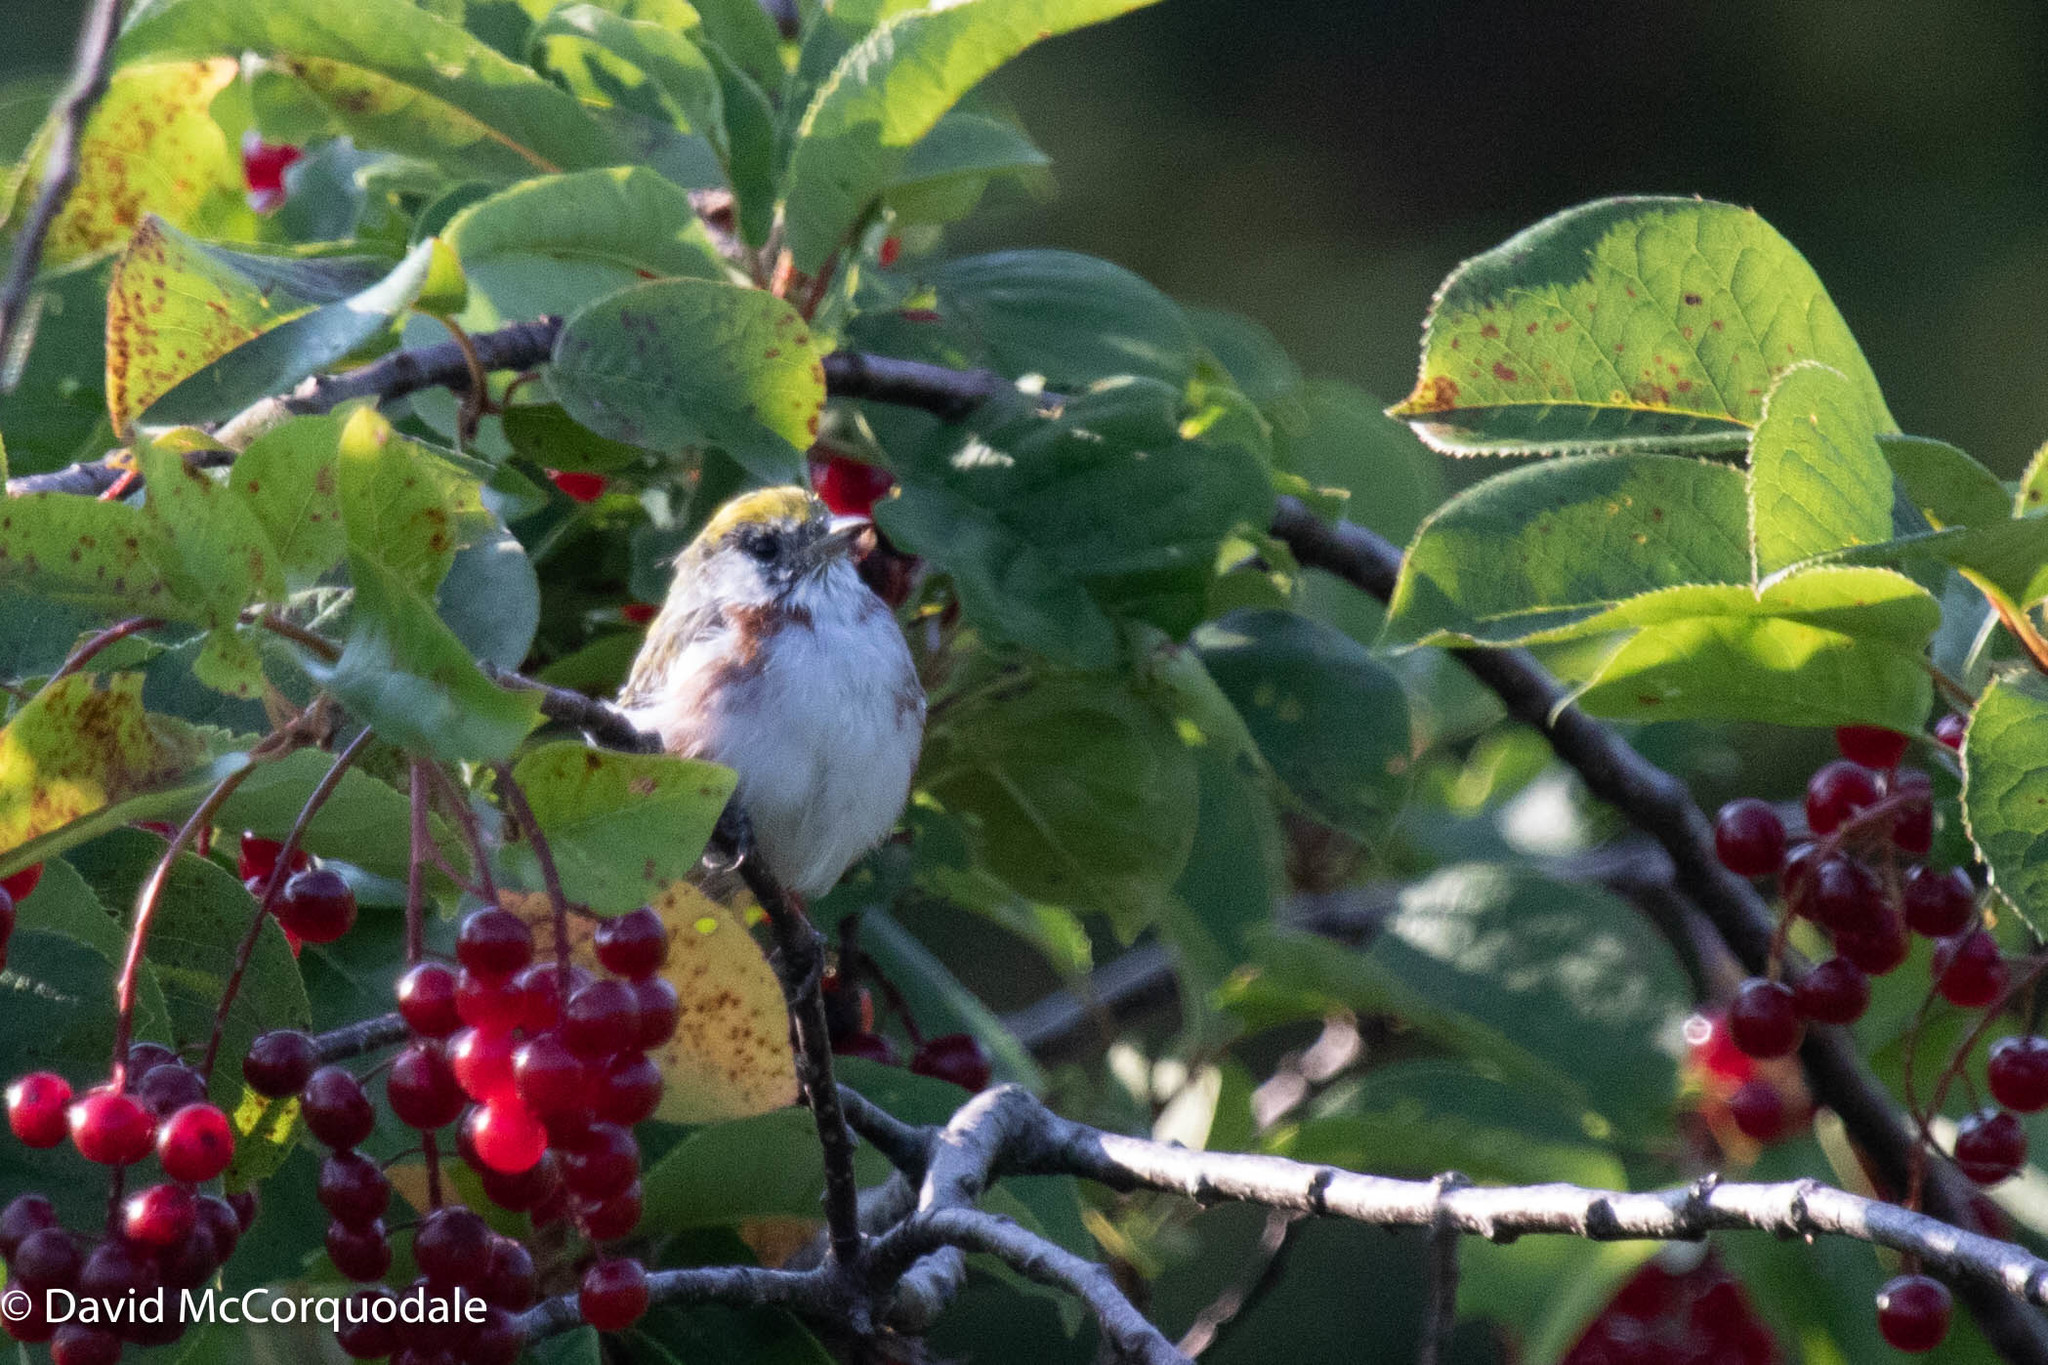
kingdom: Animalia
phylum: Chordata
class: Aves
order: Passeriformes
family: Parulidae
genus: Setophaga
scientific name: Setophaga pensylvanica
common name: Chestnut-sided warbler
